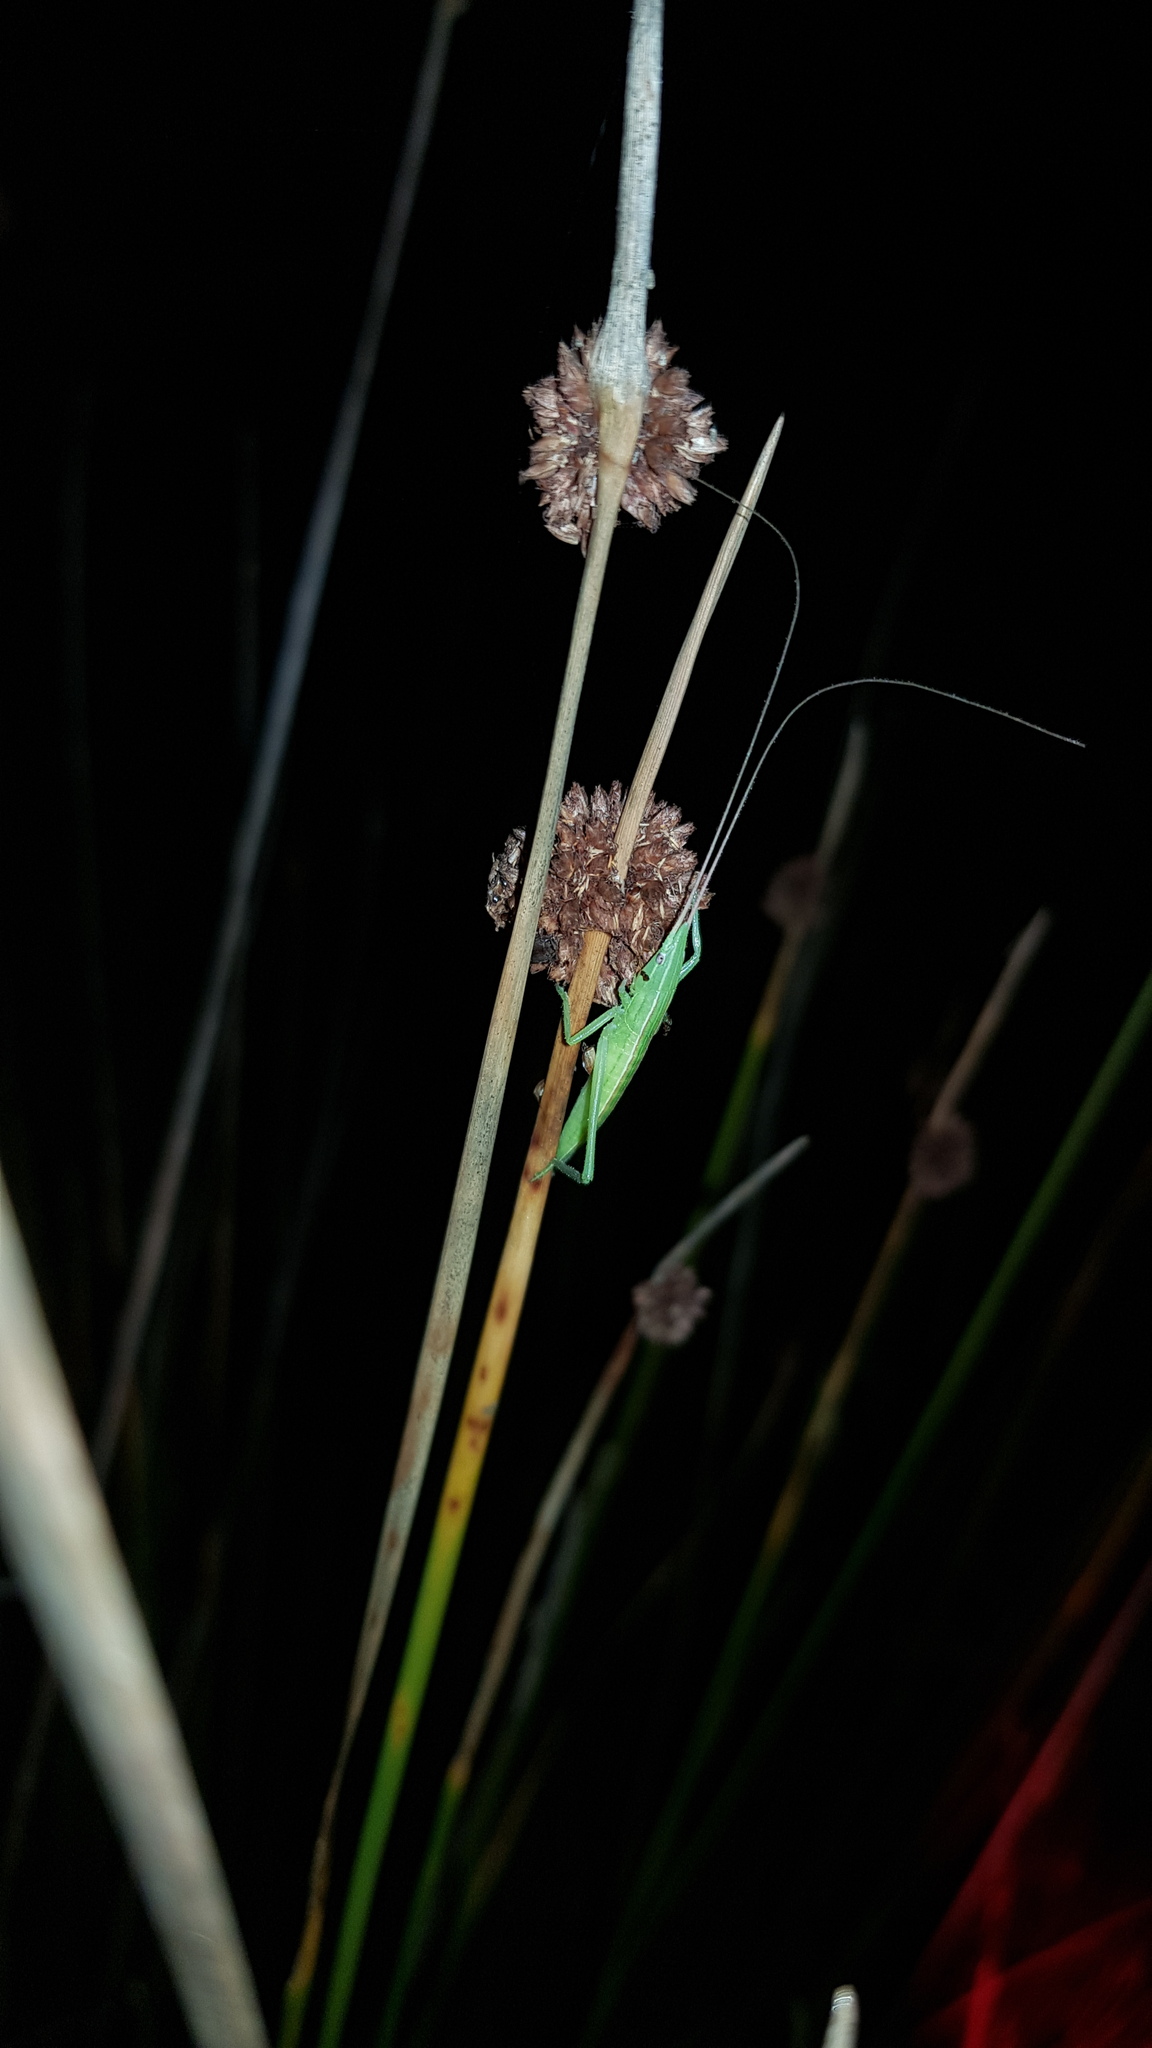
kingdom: Animalia
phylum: Arthropoda
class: Insecta
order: Orthoptera
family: Tettigoniidae
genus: Pseudorhynchus
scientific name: Pseudorhynchus lessonii
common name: Lesson's mimicking snout nose
